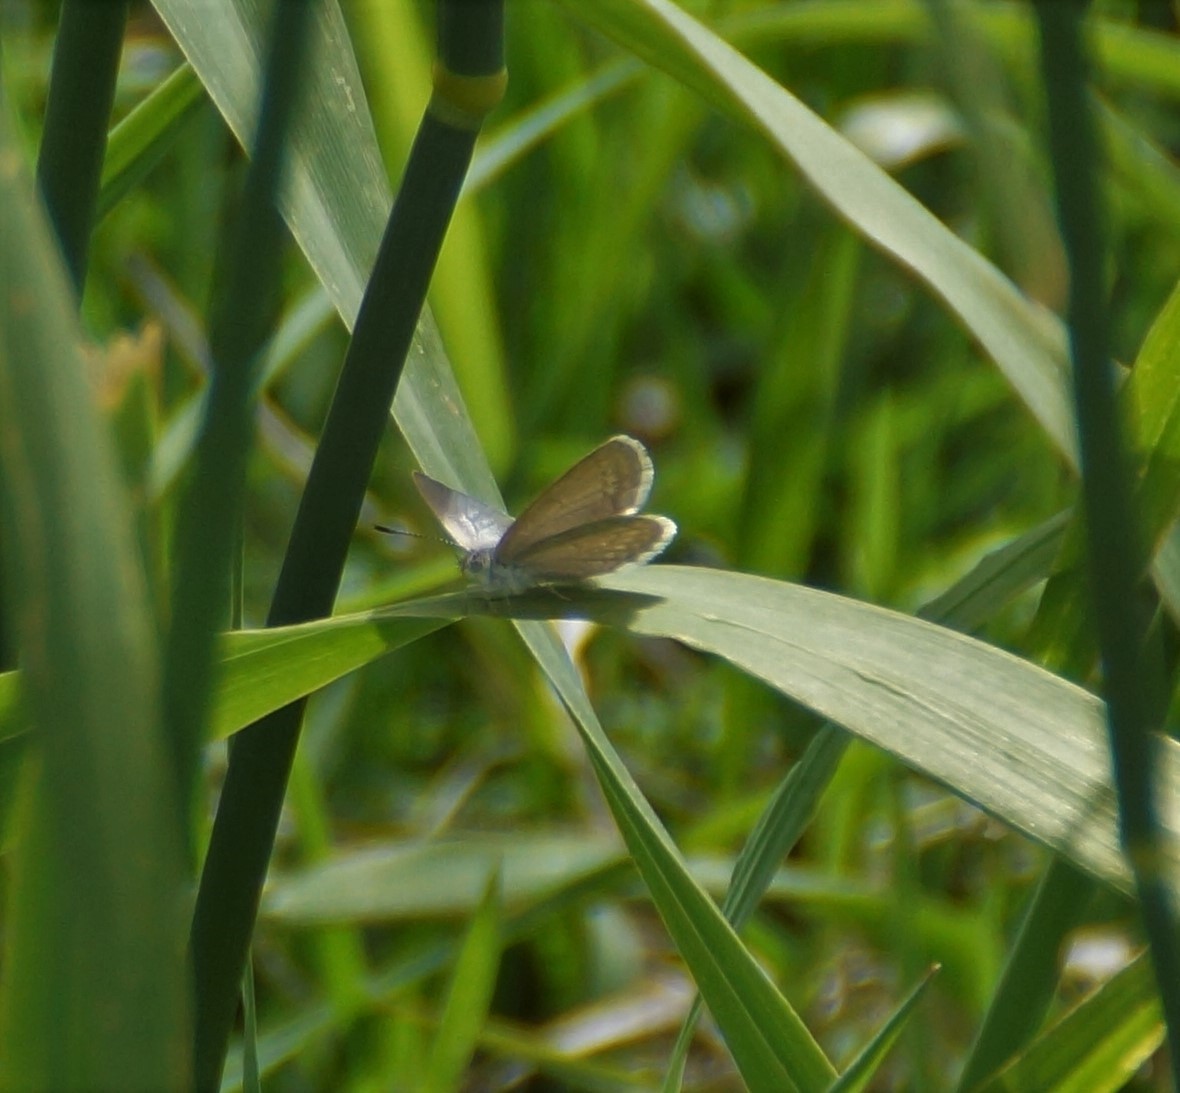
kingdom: Animalia
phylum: Arthropoda
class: Insecta
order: Lepidoptera
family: Lycaenidae
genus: Zizina
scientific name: Zizina labradus
